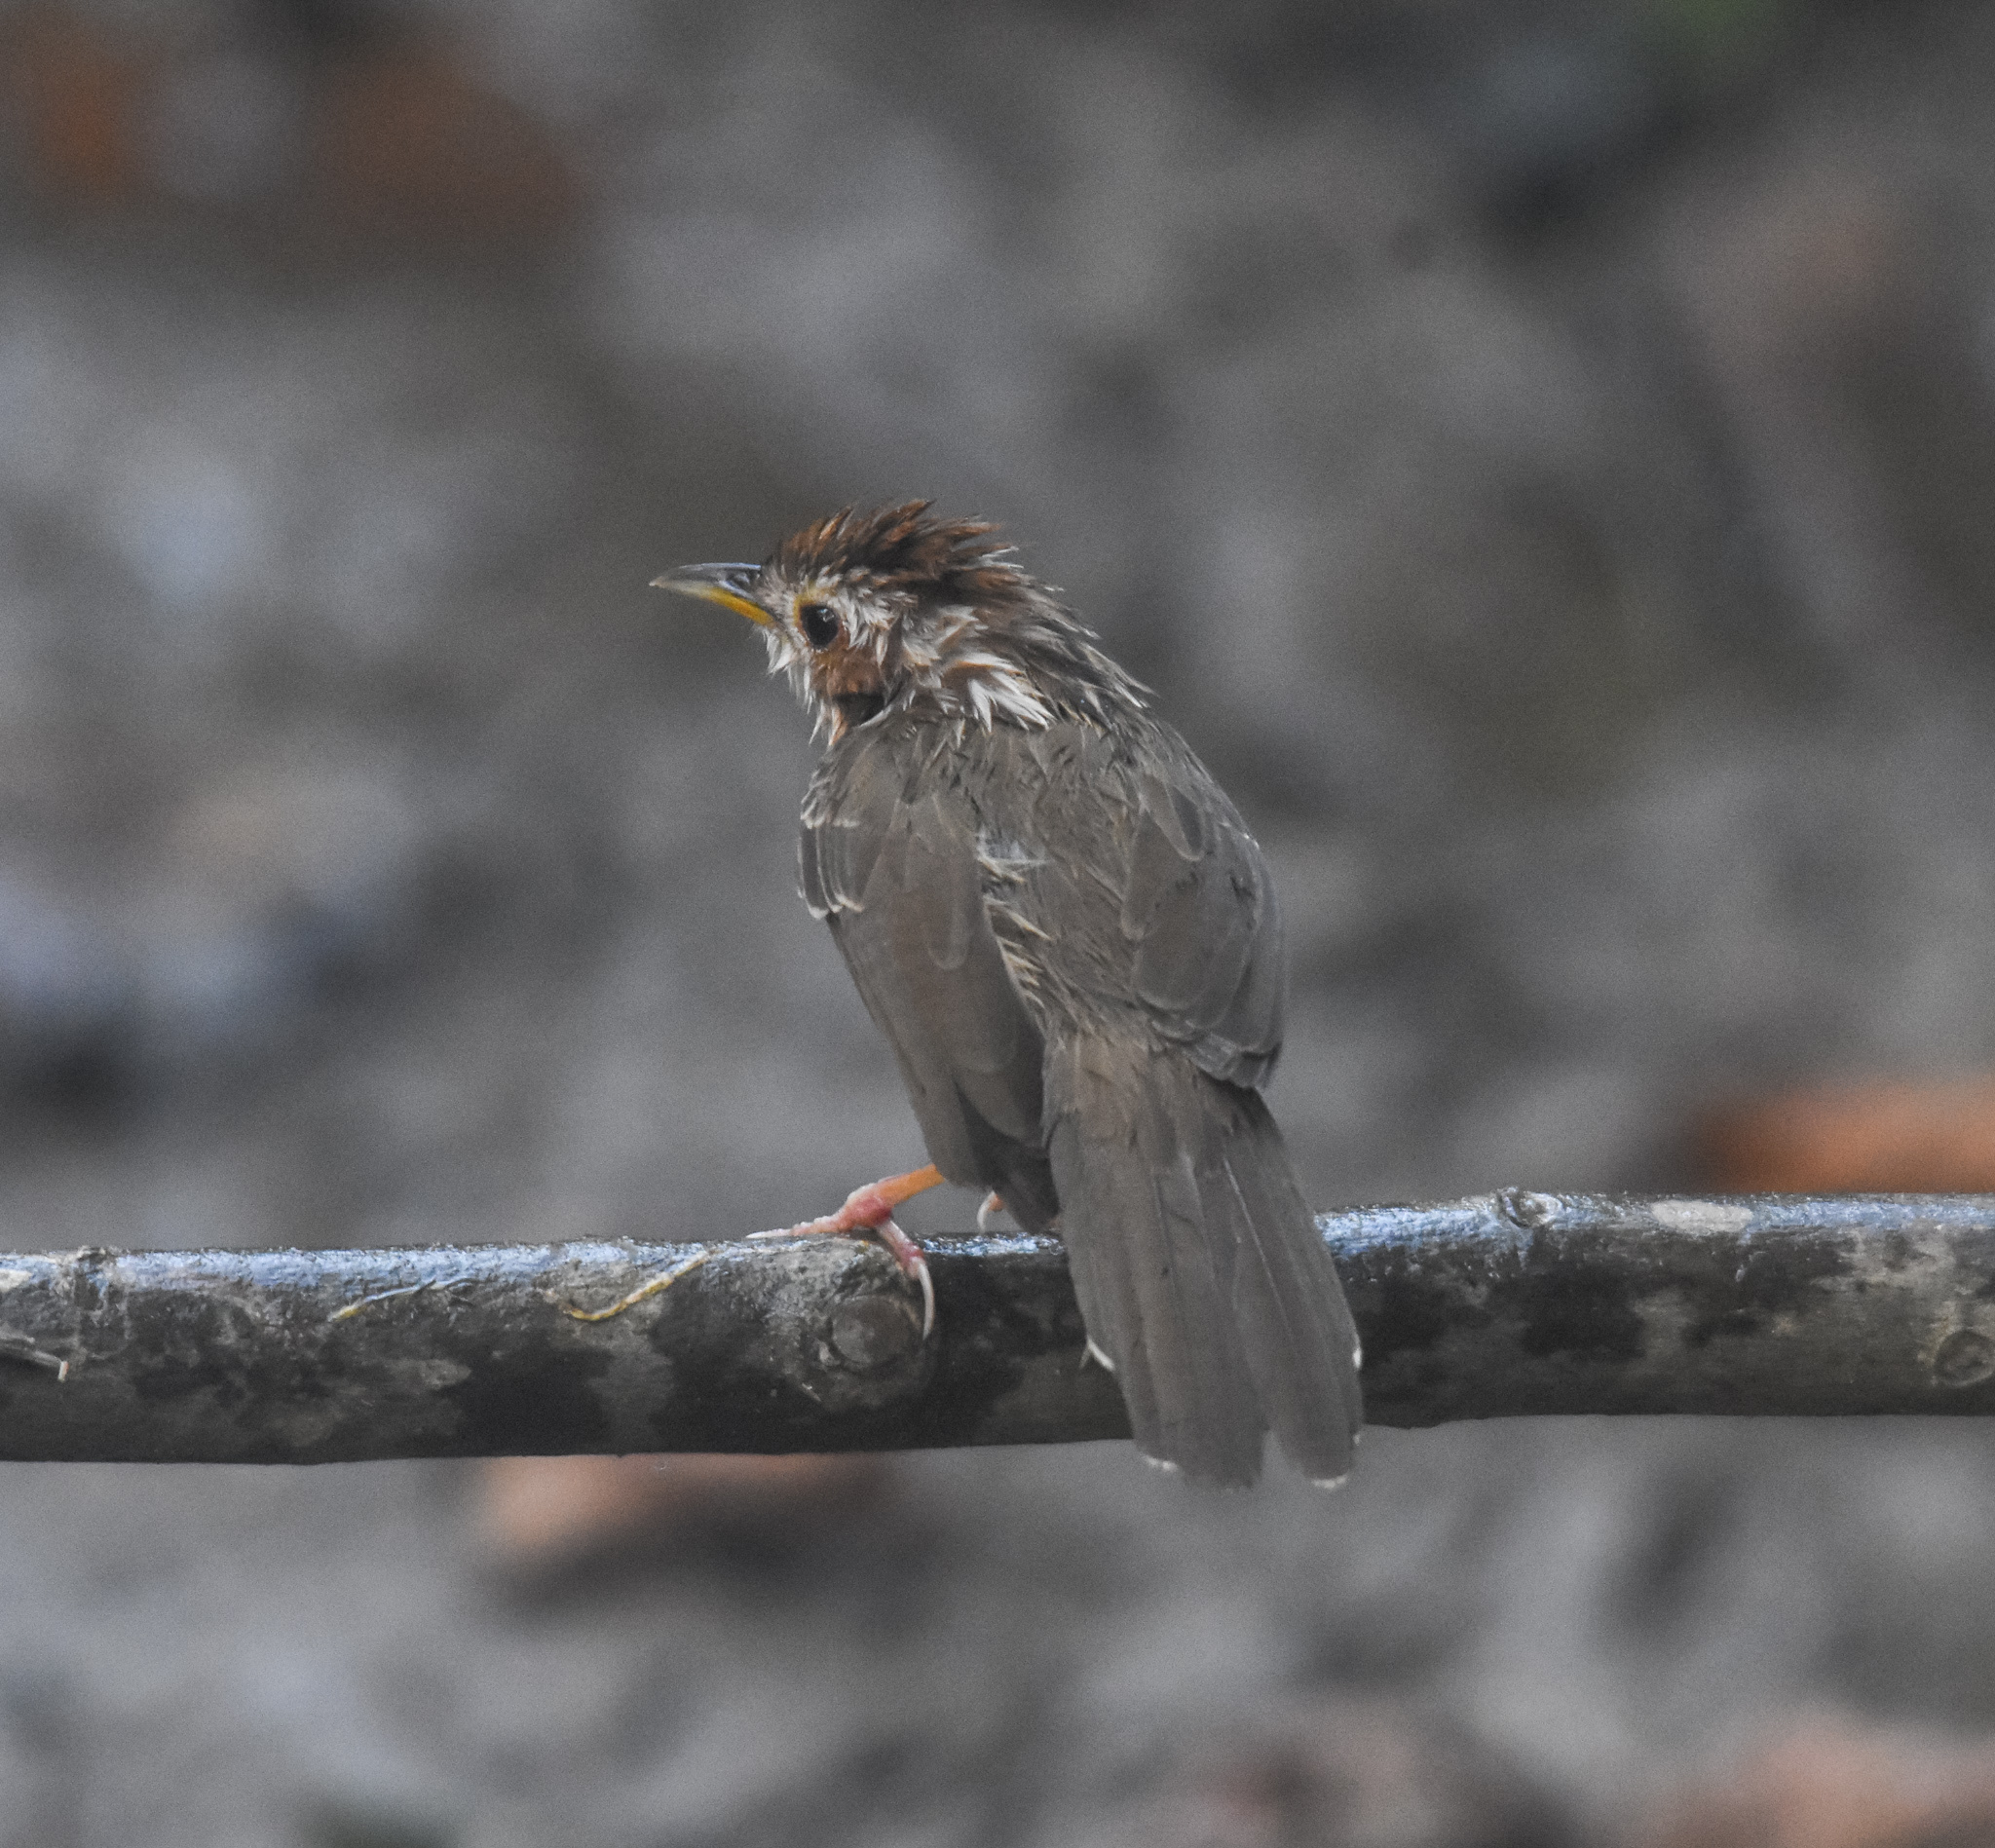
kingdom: Animalia
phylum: Chordata
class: Aves
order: Passeriformes
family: Pellorneidae
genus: Pellorneum
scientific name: Pellorneum ruficeps
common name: Puff-throated babbler
